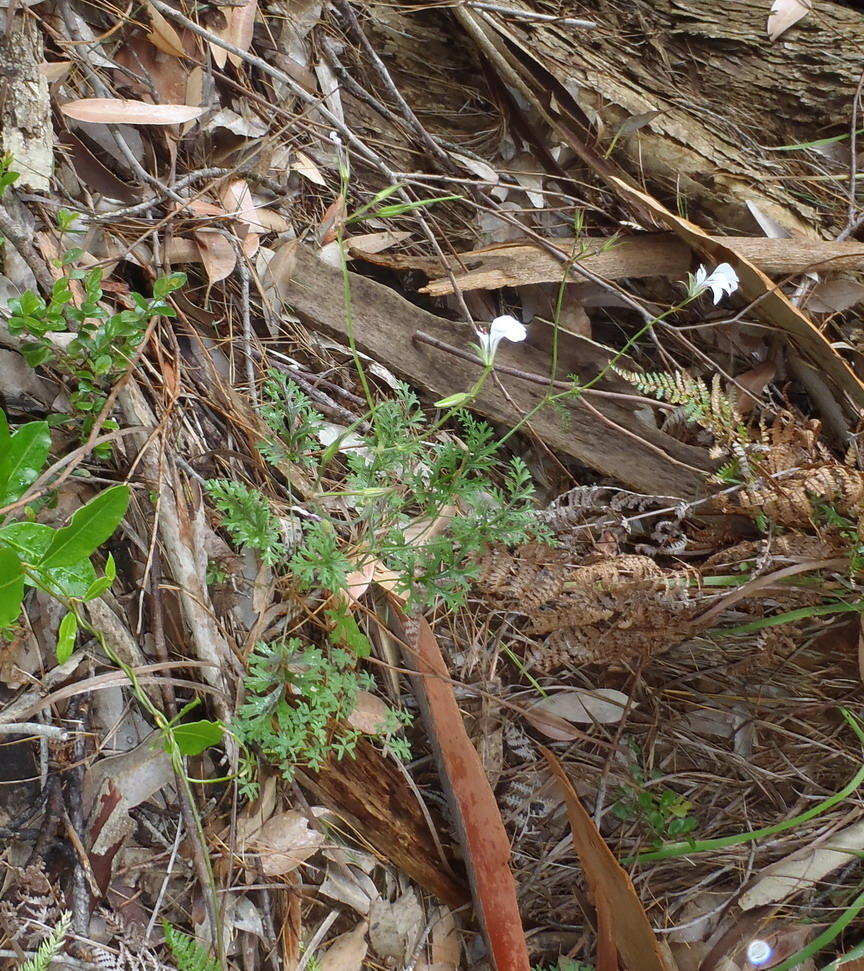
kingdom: Plantae
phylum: Tracheophyta
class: Magnoliopsida
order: Geraniales
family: Geraniaceae
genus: Pelargonium
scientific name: Pelargonium myrrhifolium
